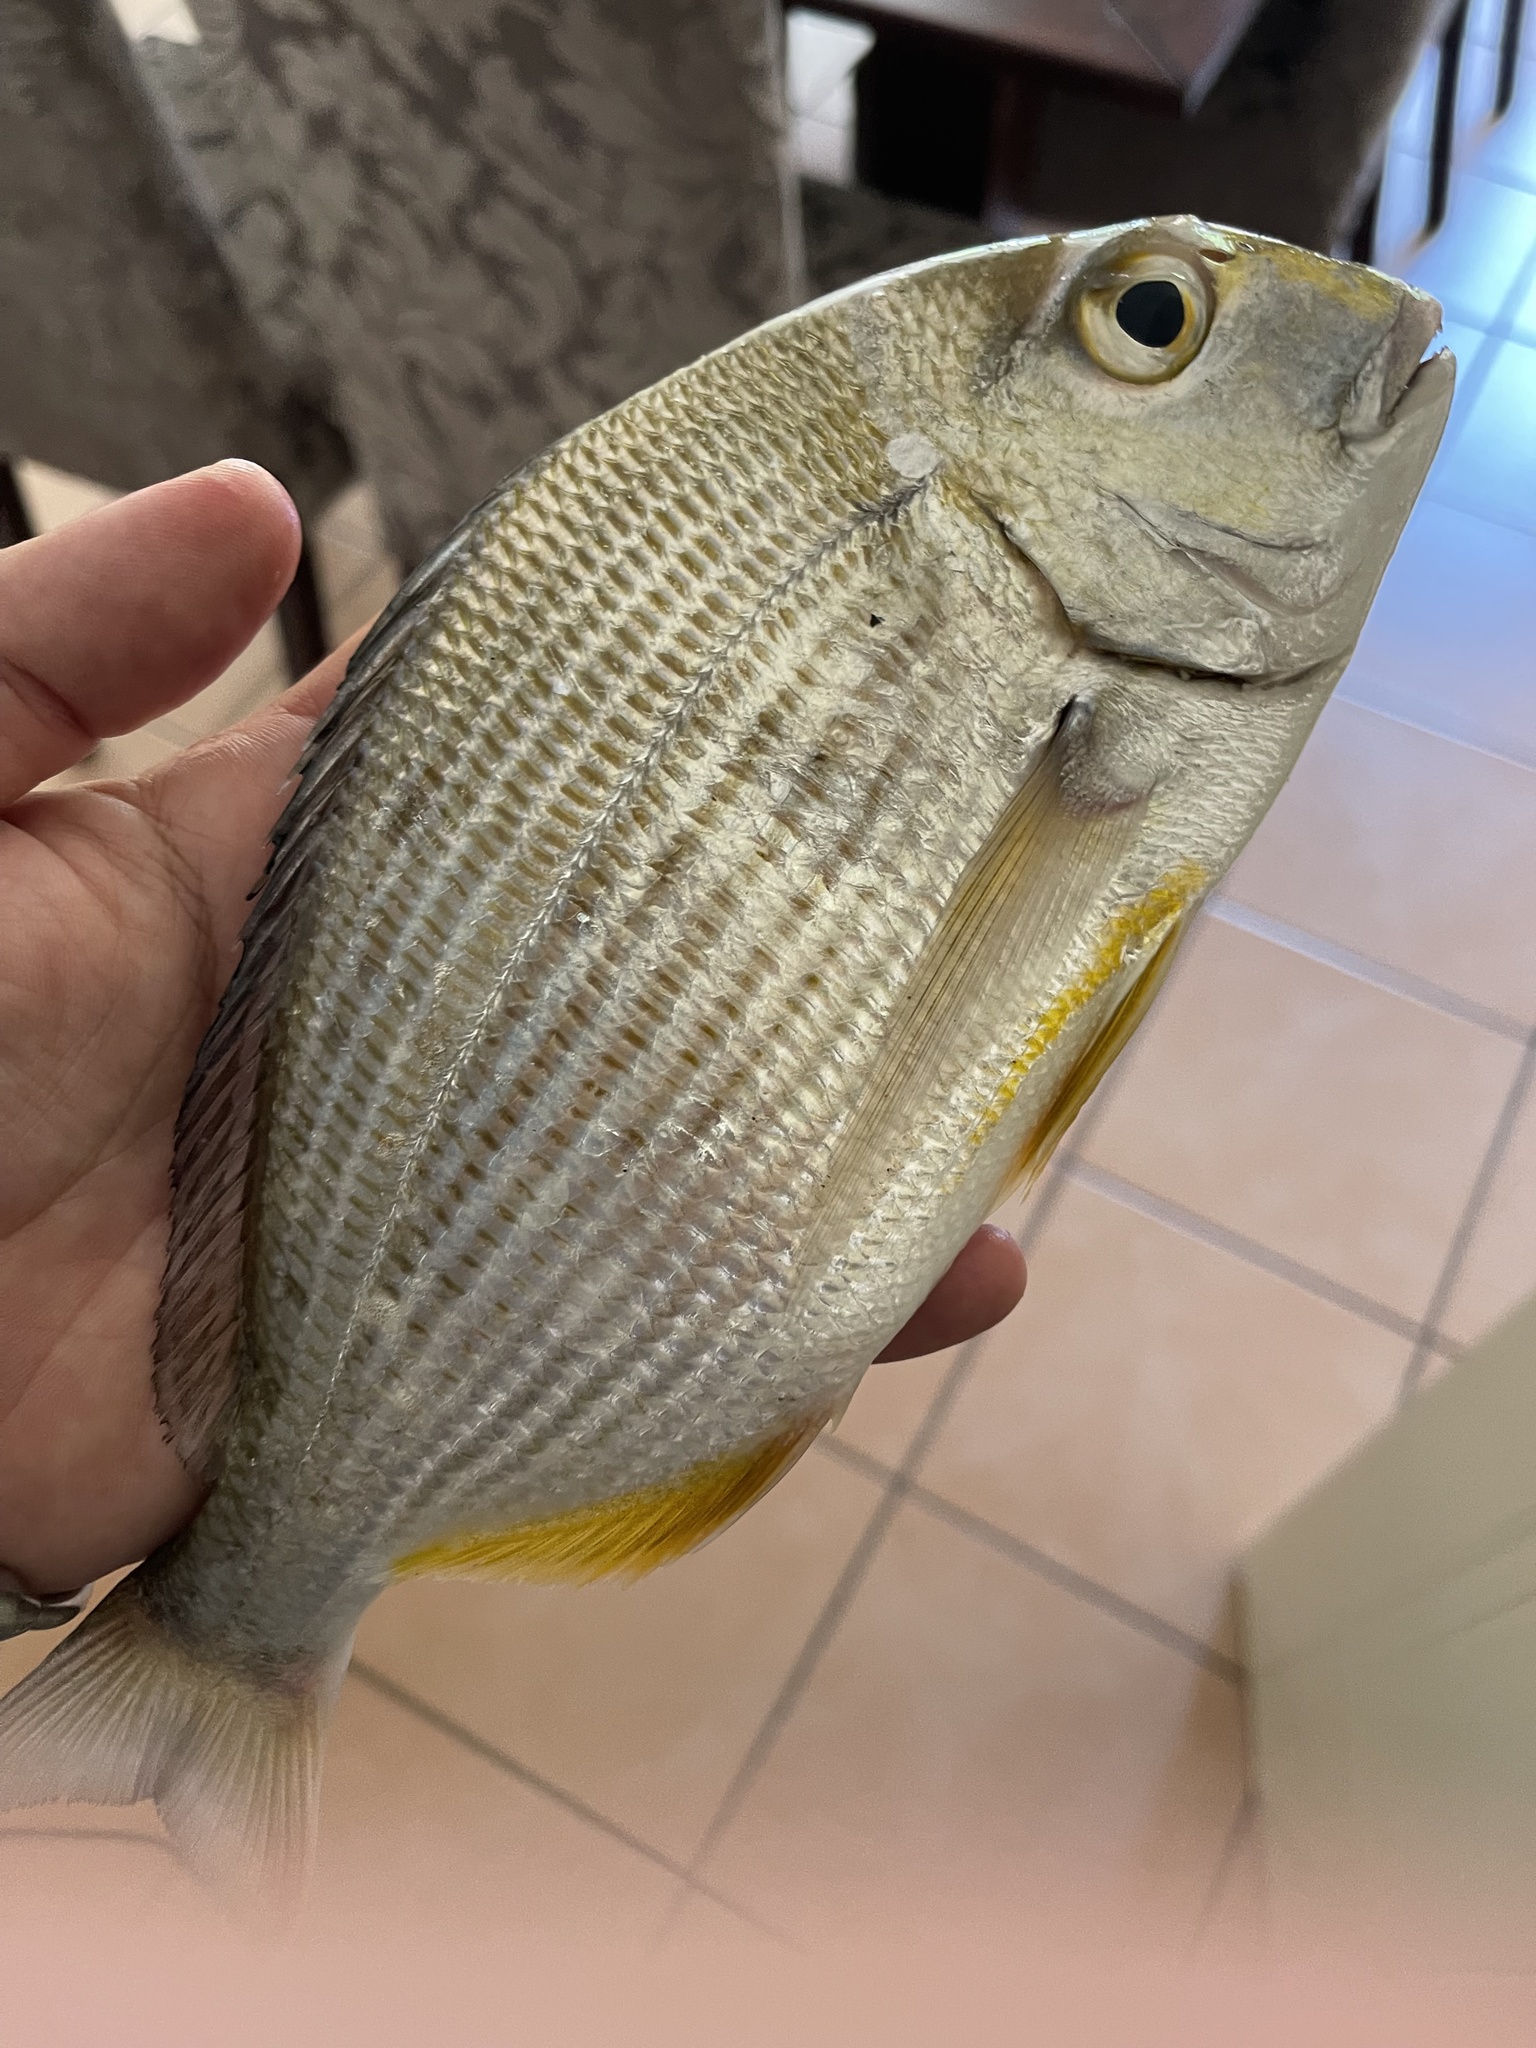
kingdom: Animalia
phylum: Chordata
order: Perciformes
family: Sparidae
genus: Rhabdosargus
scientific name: Rhabdosargus sarba
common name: Goldlined seabream
